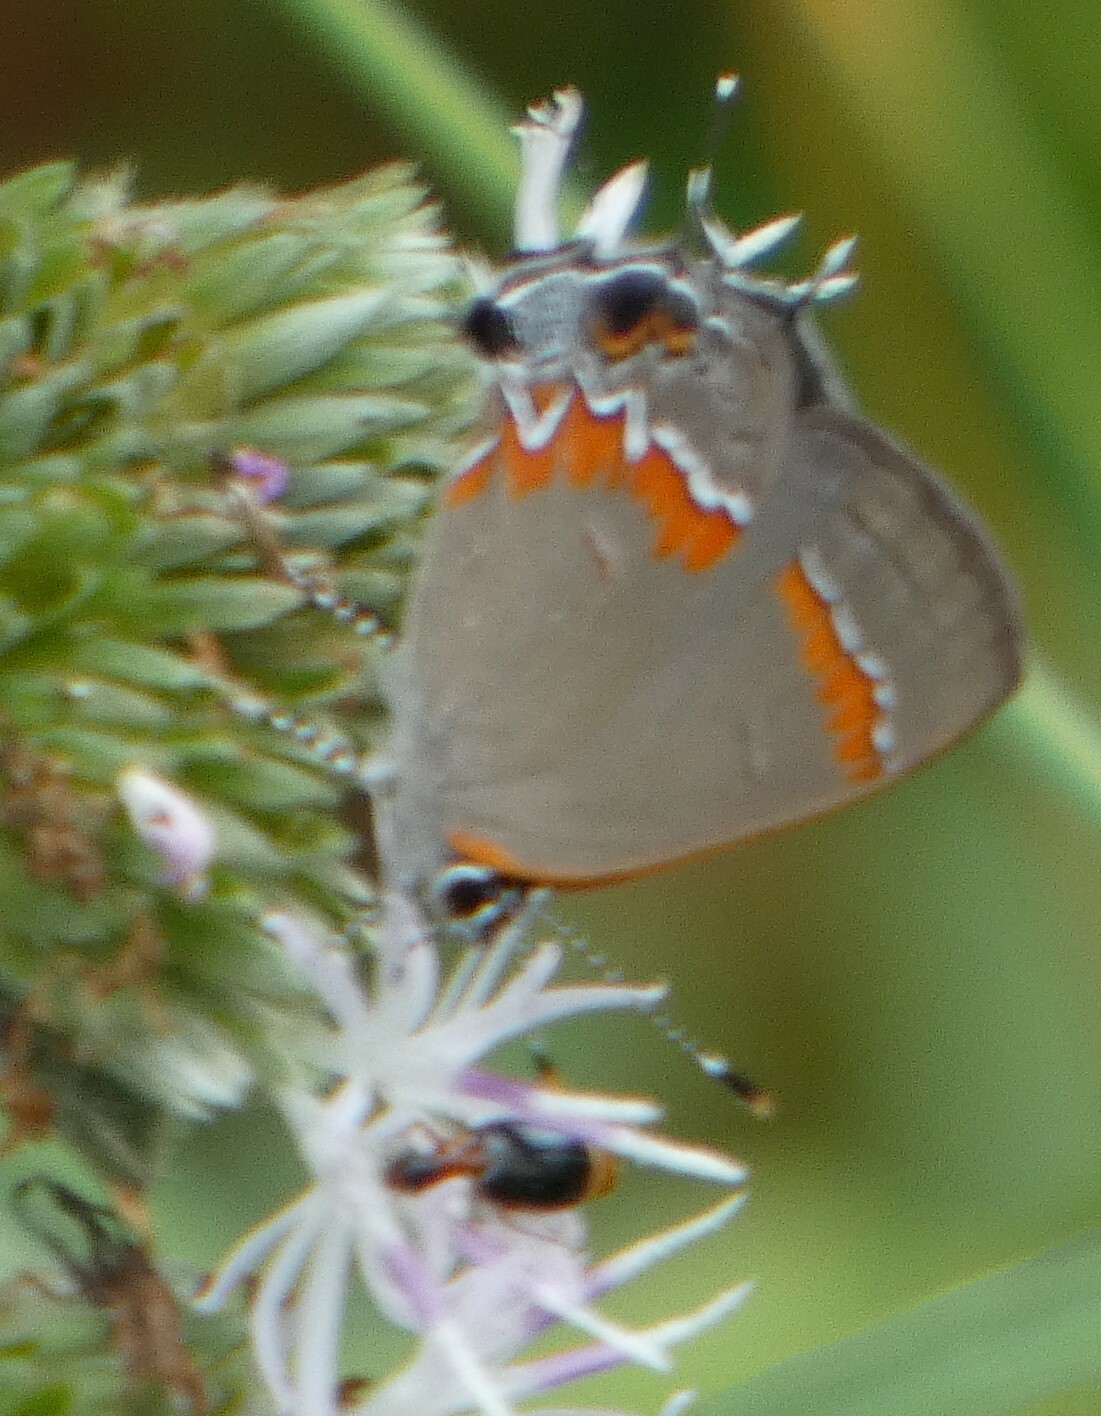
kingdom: Animalia
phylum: Arthropoda
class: Insecta
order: Lepidoptera
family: Lycaenidae
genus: Calycopis
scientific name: Calycopis cecrops
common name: Red-banded hairstreak
